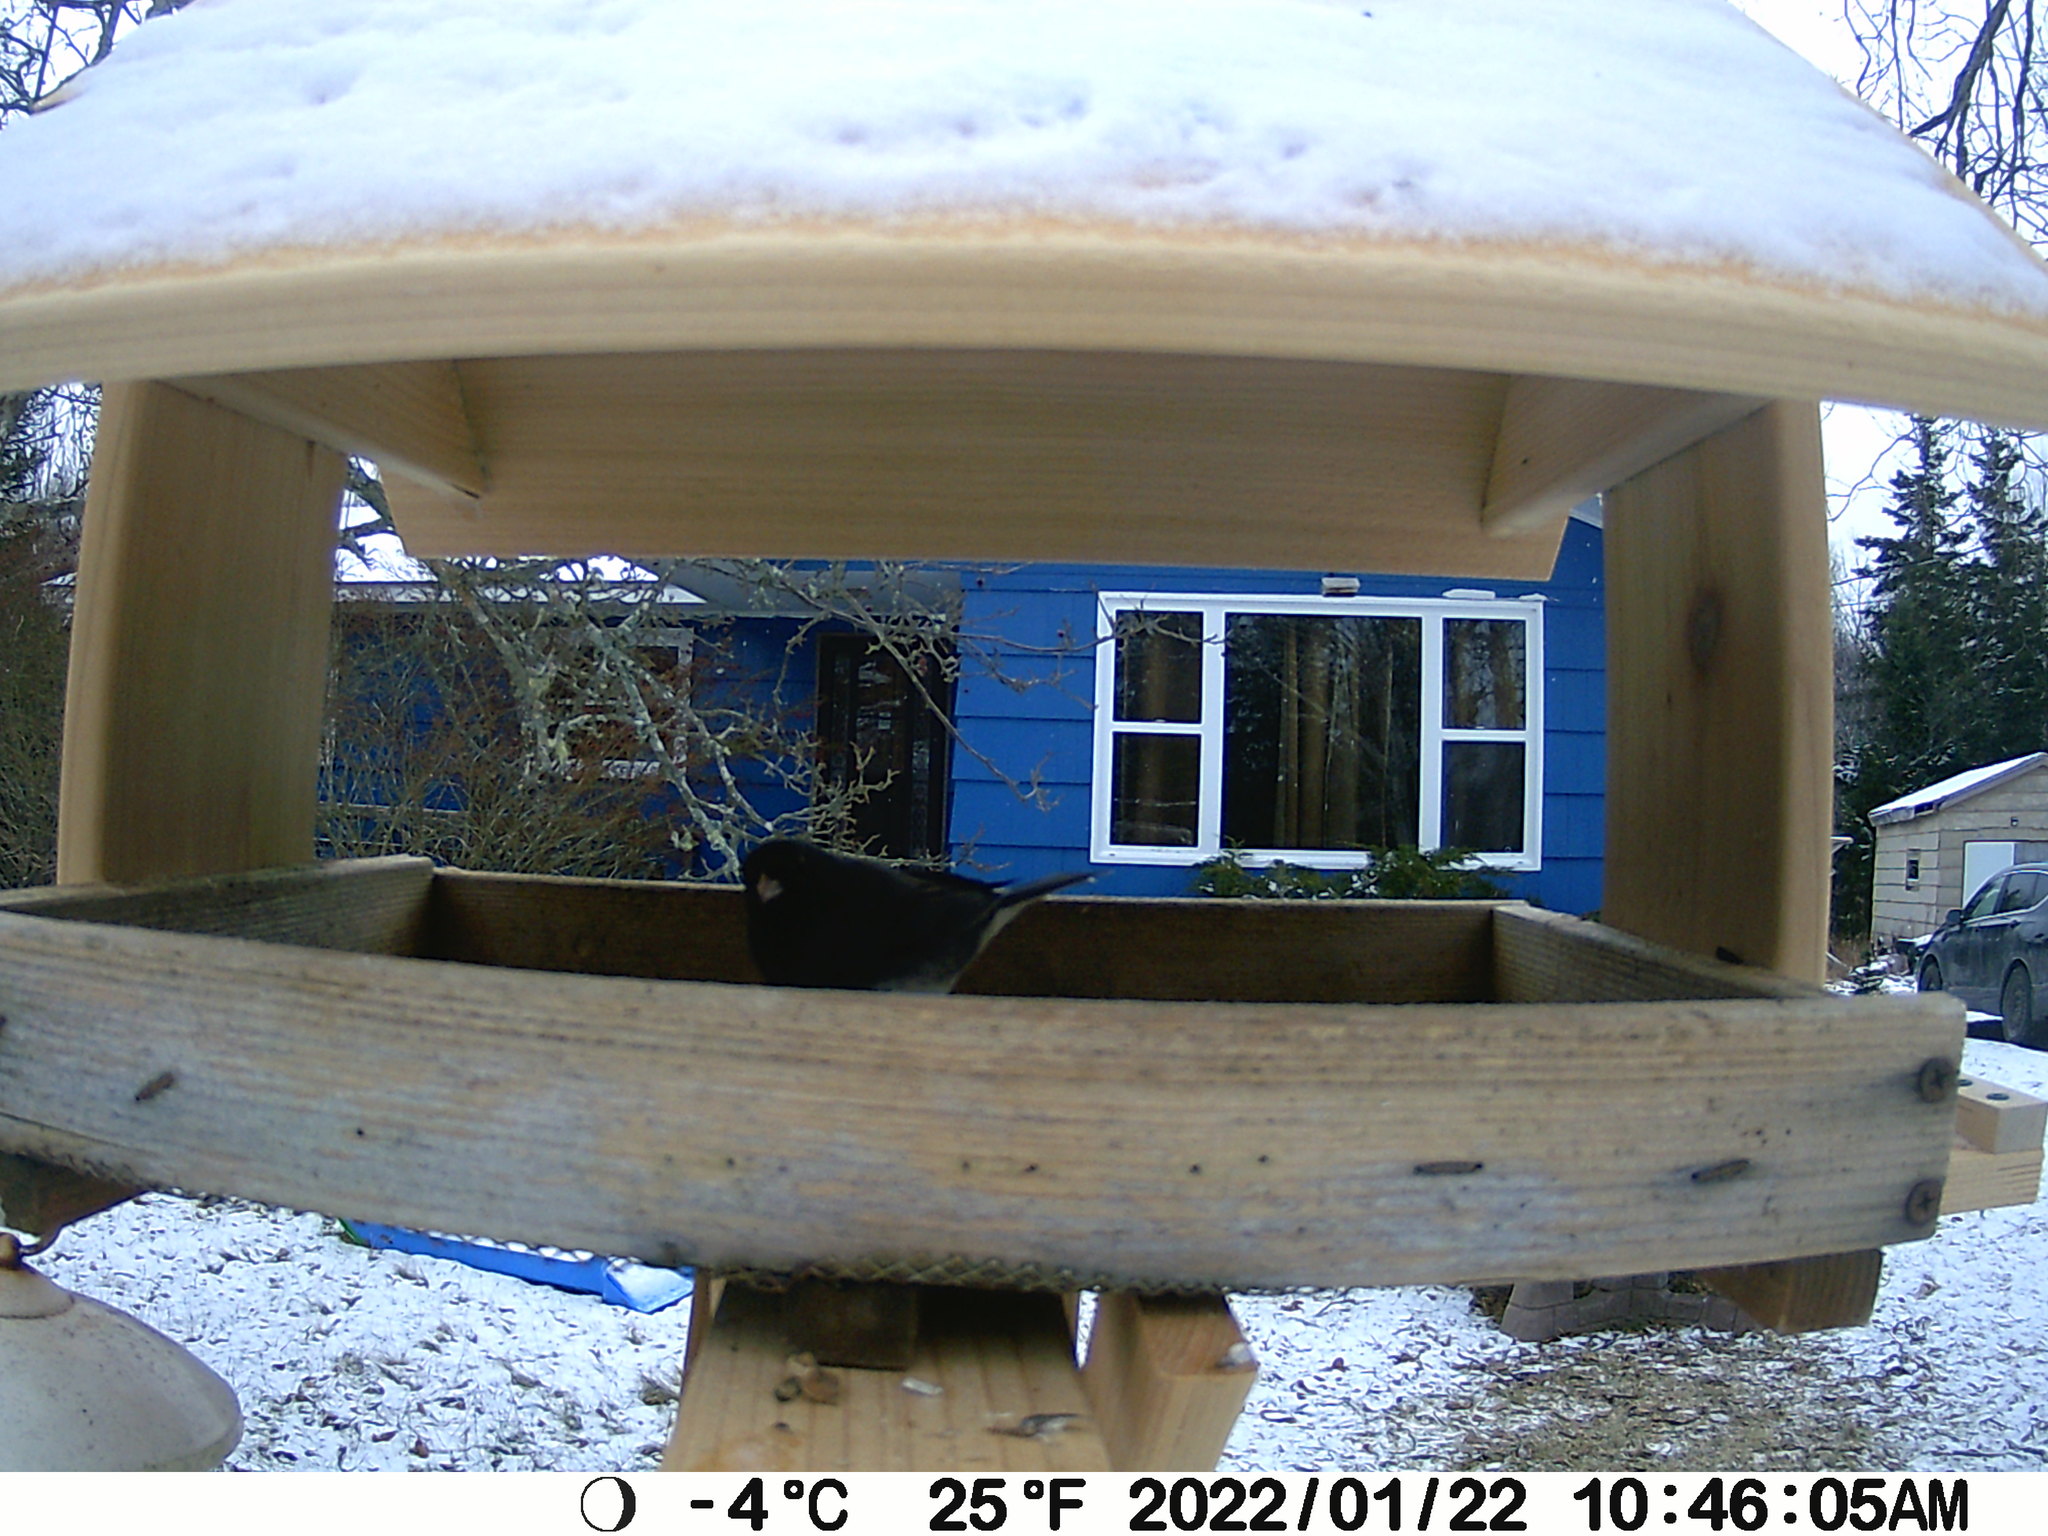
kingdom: Animalia
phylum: Chordata
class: Aves
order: Passeriformes
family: Passerellidae
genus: Junco
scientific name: Junco hyemalis
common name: Dark-eyed junco
